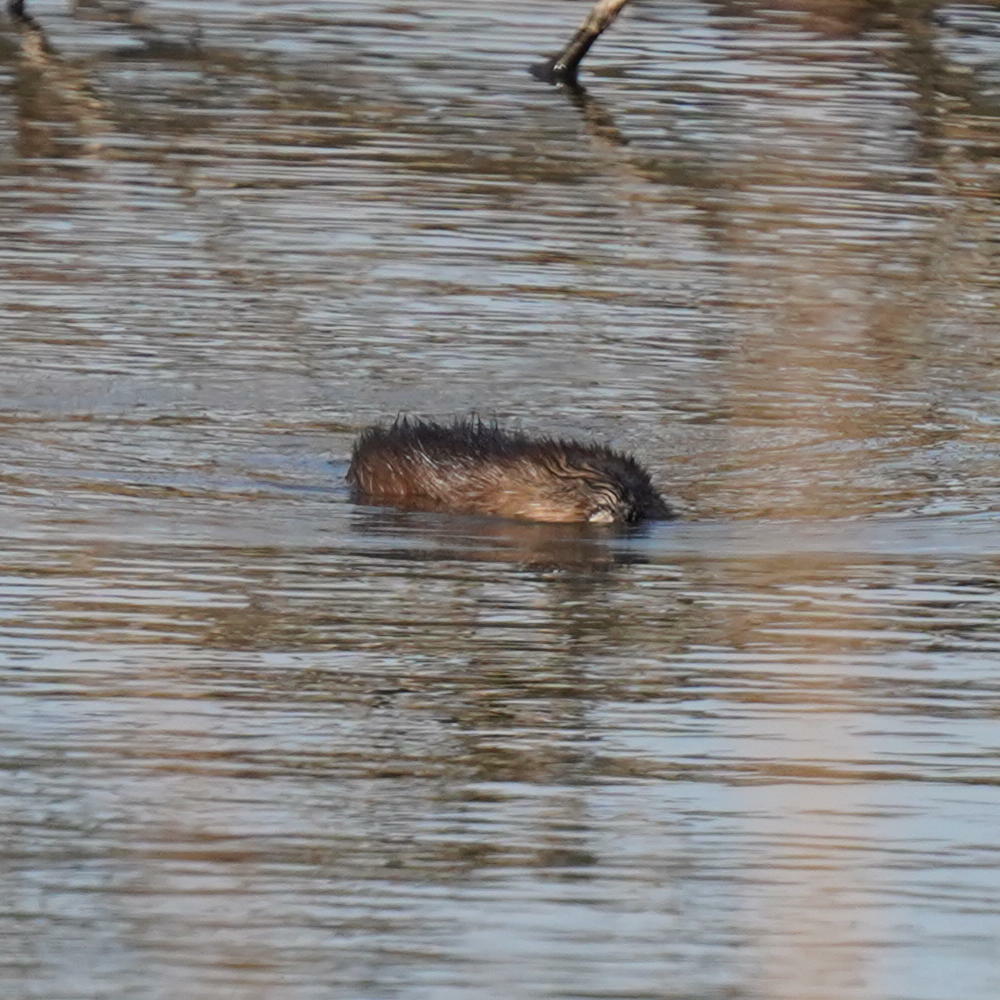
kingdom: Animalia
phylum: Chordata
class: Mammalia
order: Rodentia
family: Cricetidae
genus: Ondatra
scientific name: Ondatra zibethicus
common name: Muskrat
